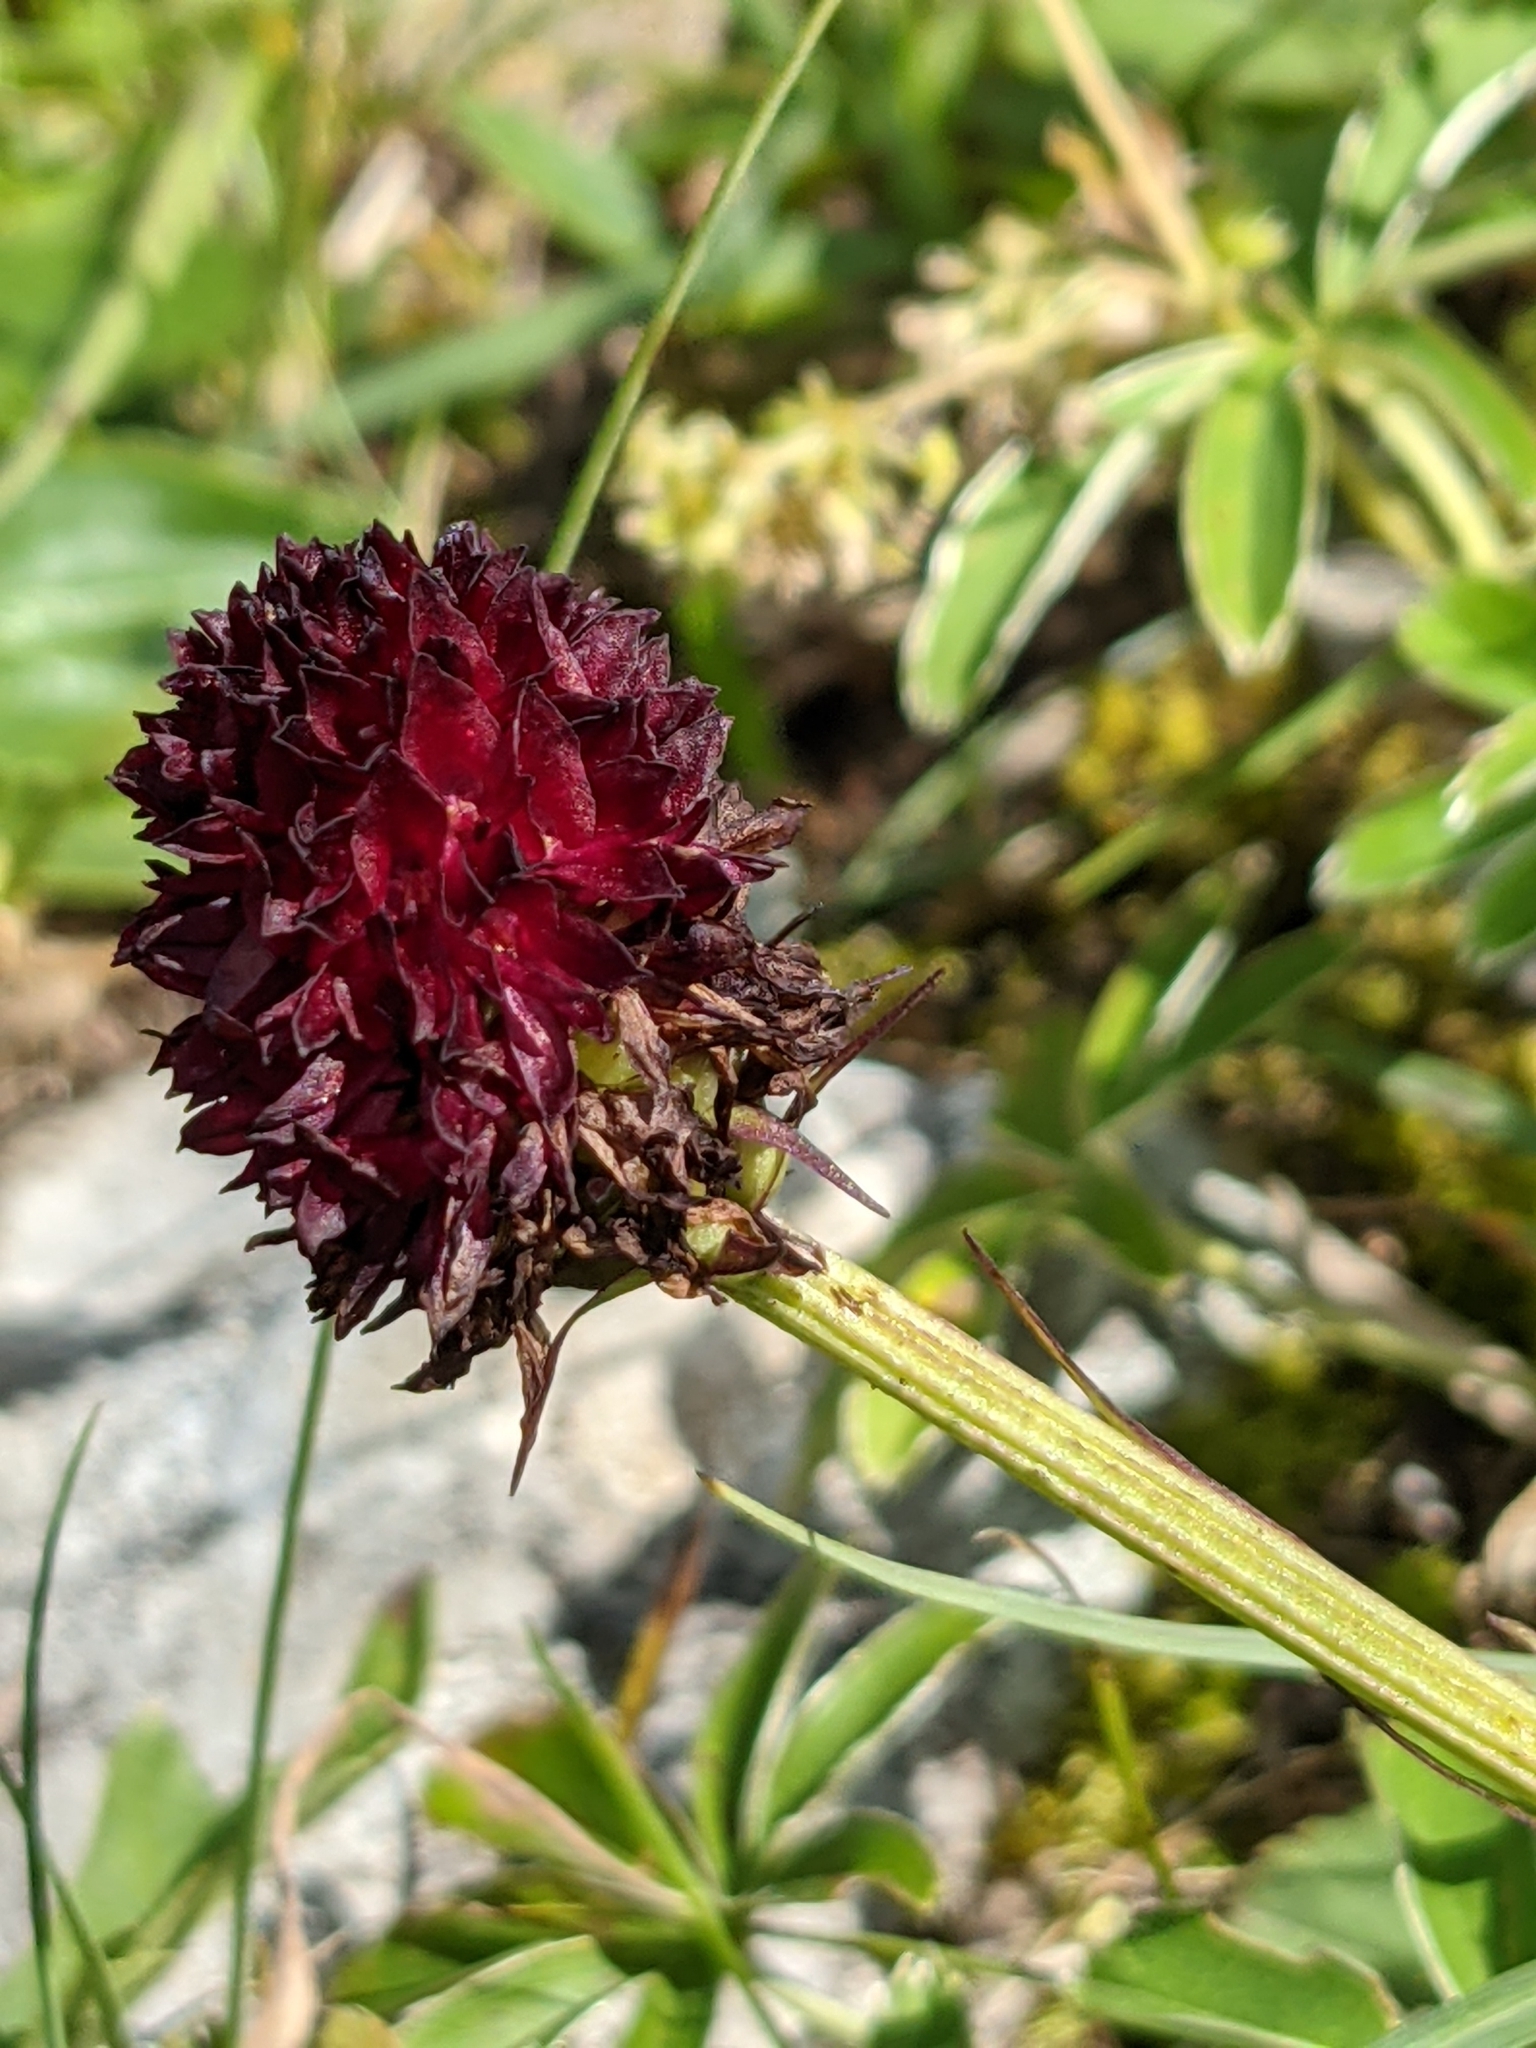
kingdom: Plantae
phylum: Tracheophyta
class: Liliopsida
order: Asparagales
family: Orchidaceae
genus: Gymnadenia
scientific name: Gymnadenia rhellicani
